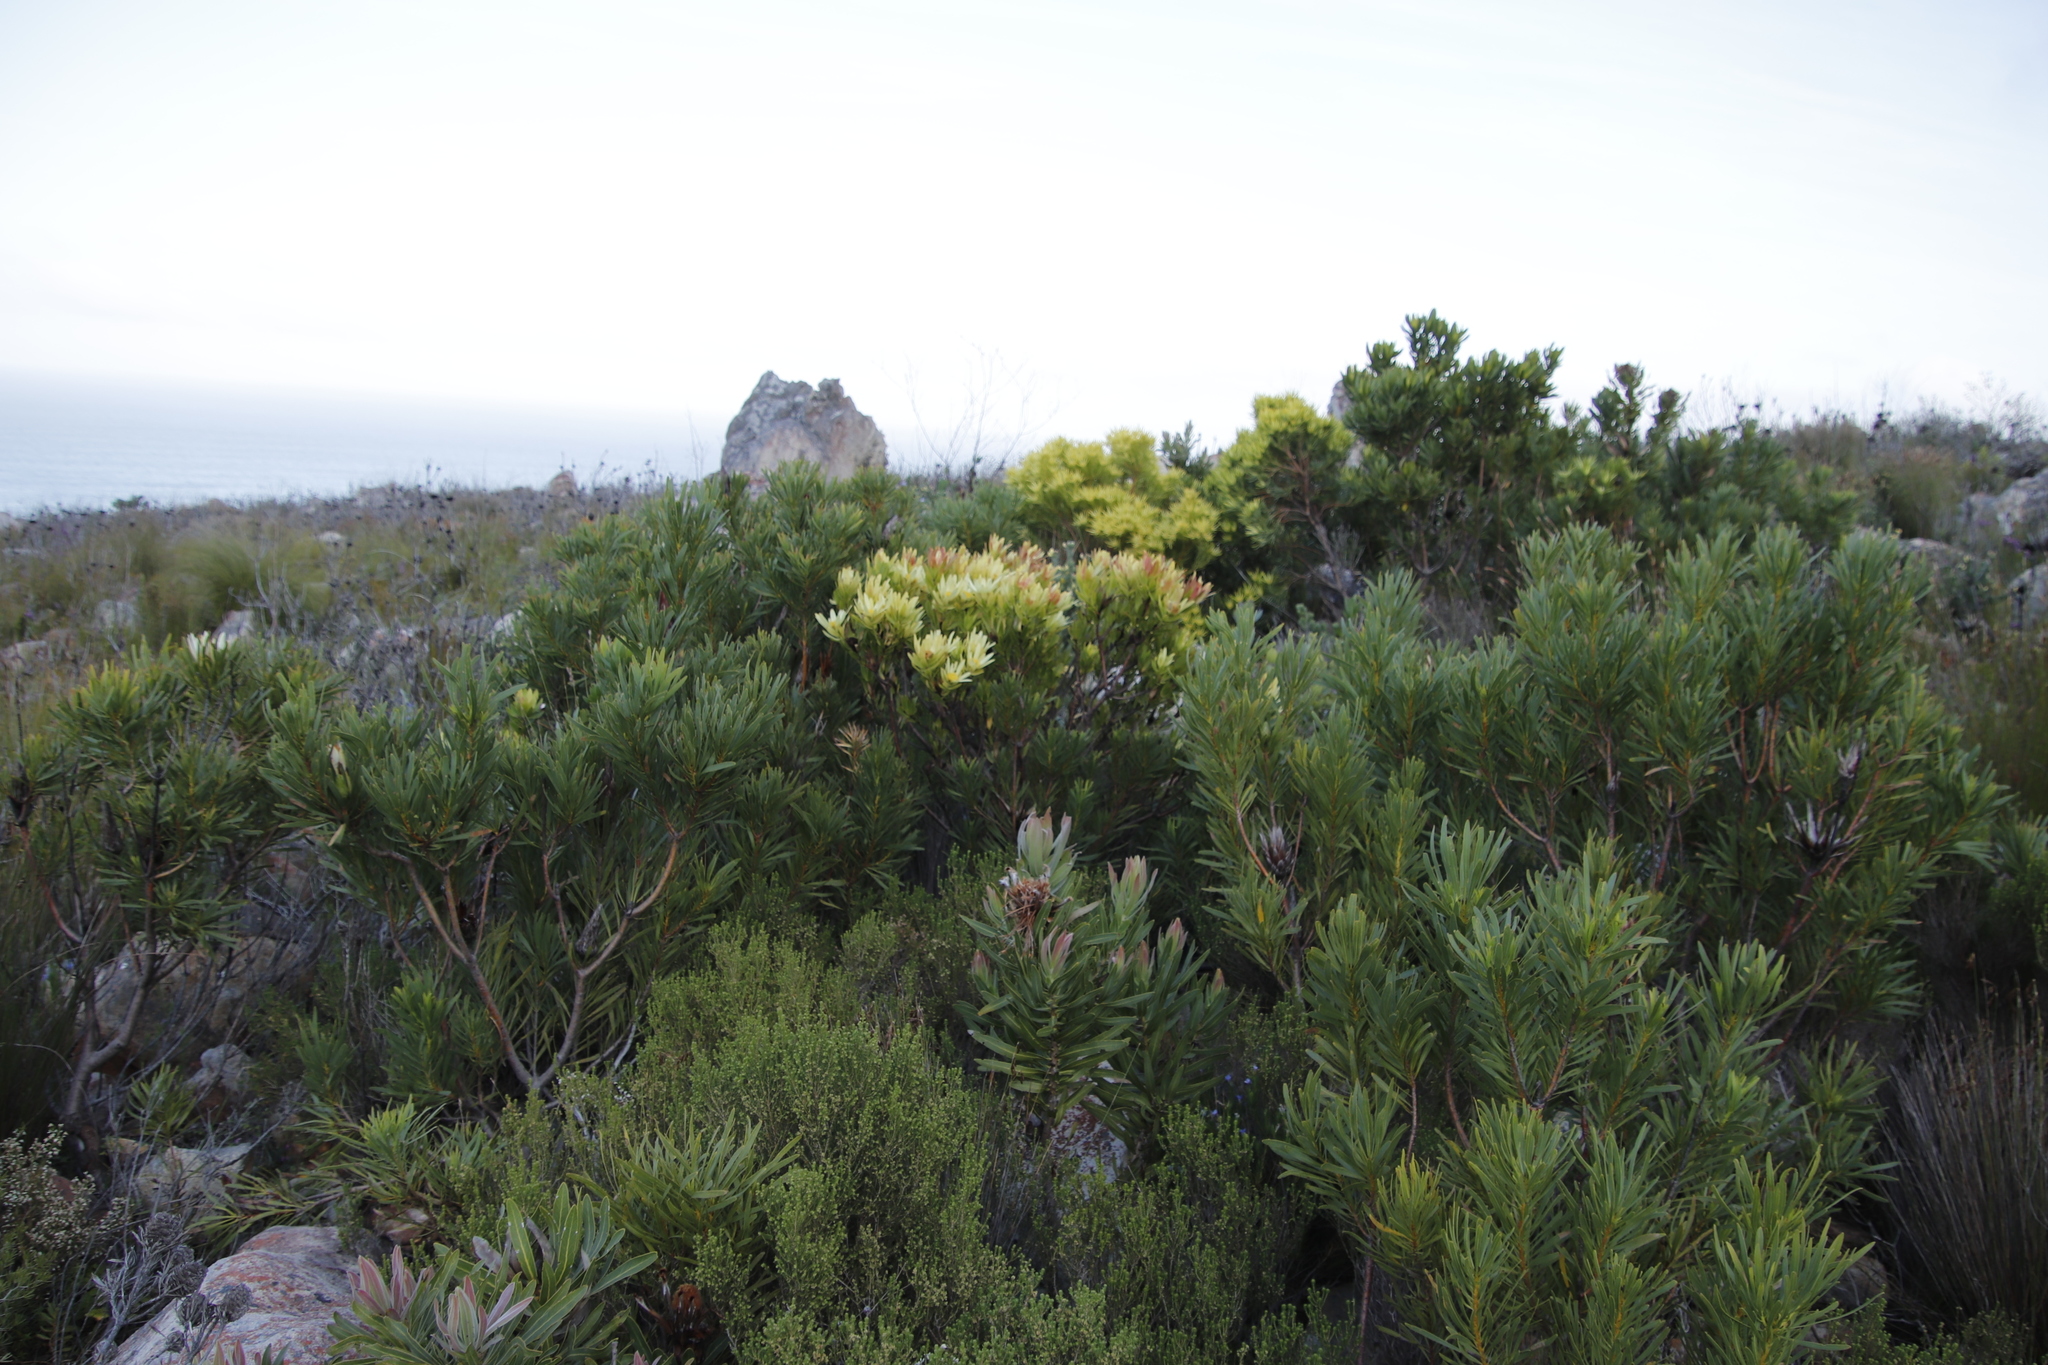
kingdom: Plantae
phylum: Tracheophyta
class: Magnoliopsida
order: Proteales
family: Proteaceae
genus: Leucadendron
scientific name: Leucadendron sessile
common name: Western sunbush
